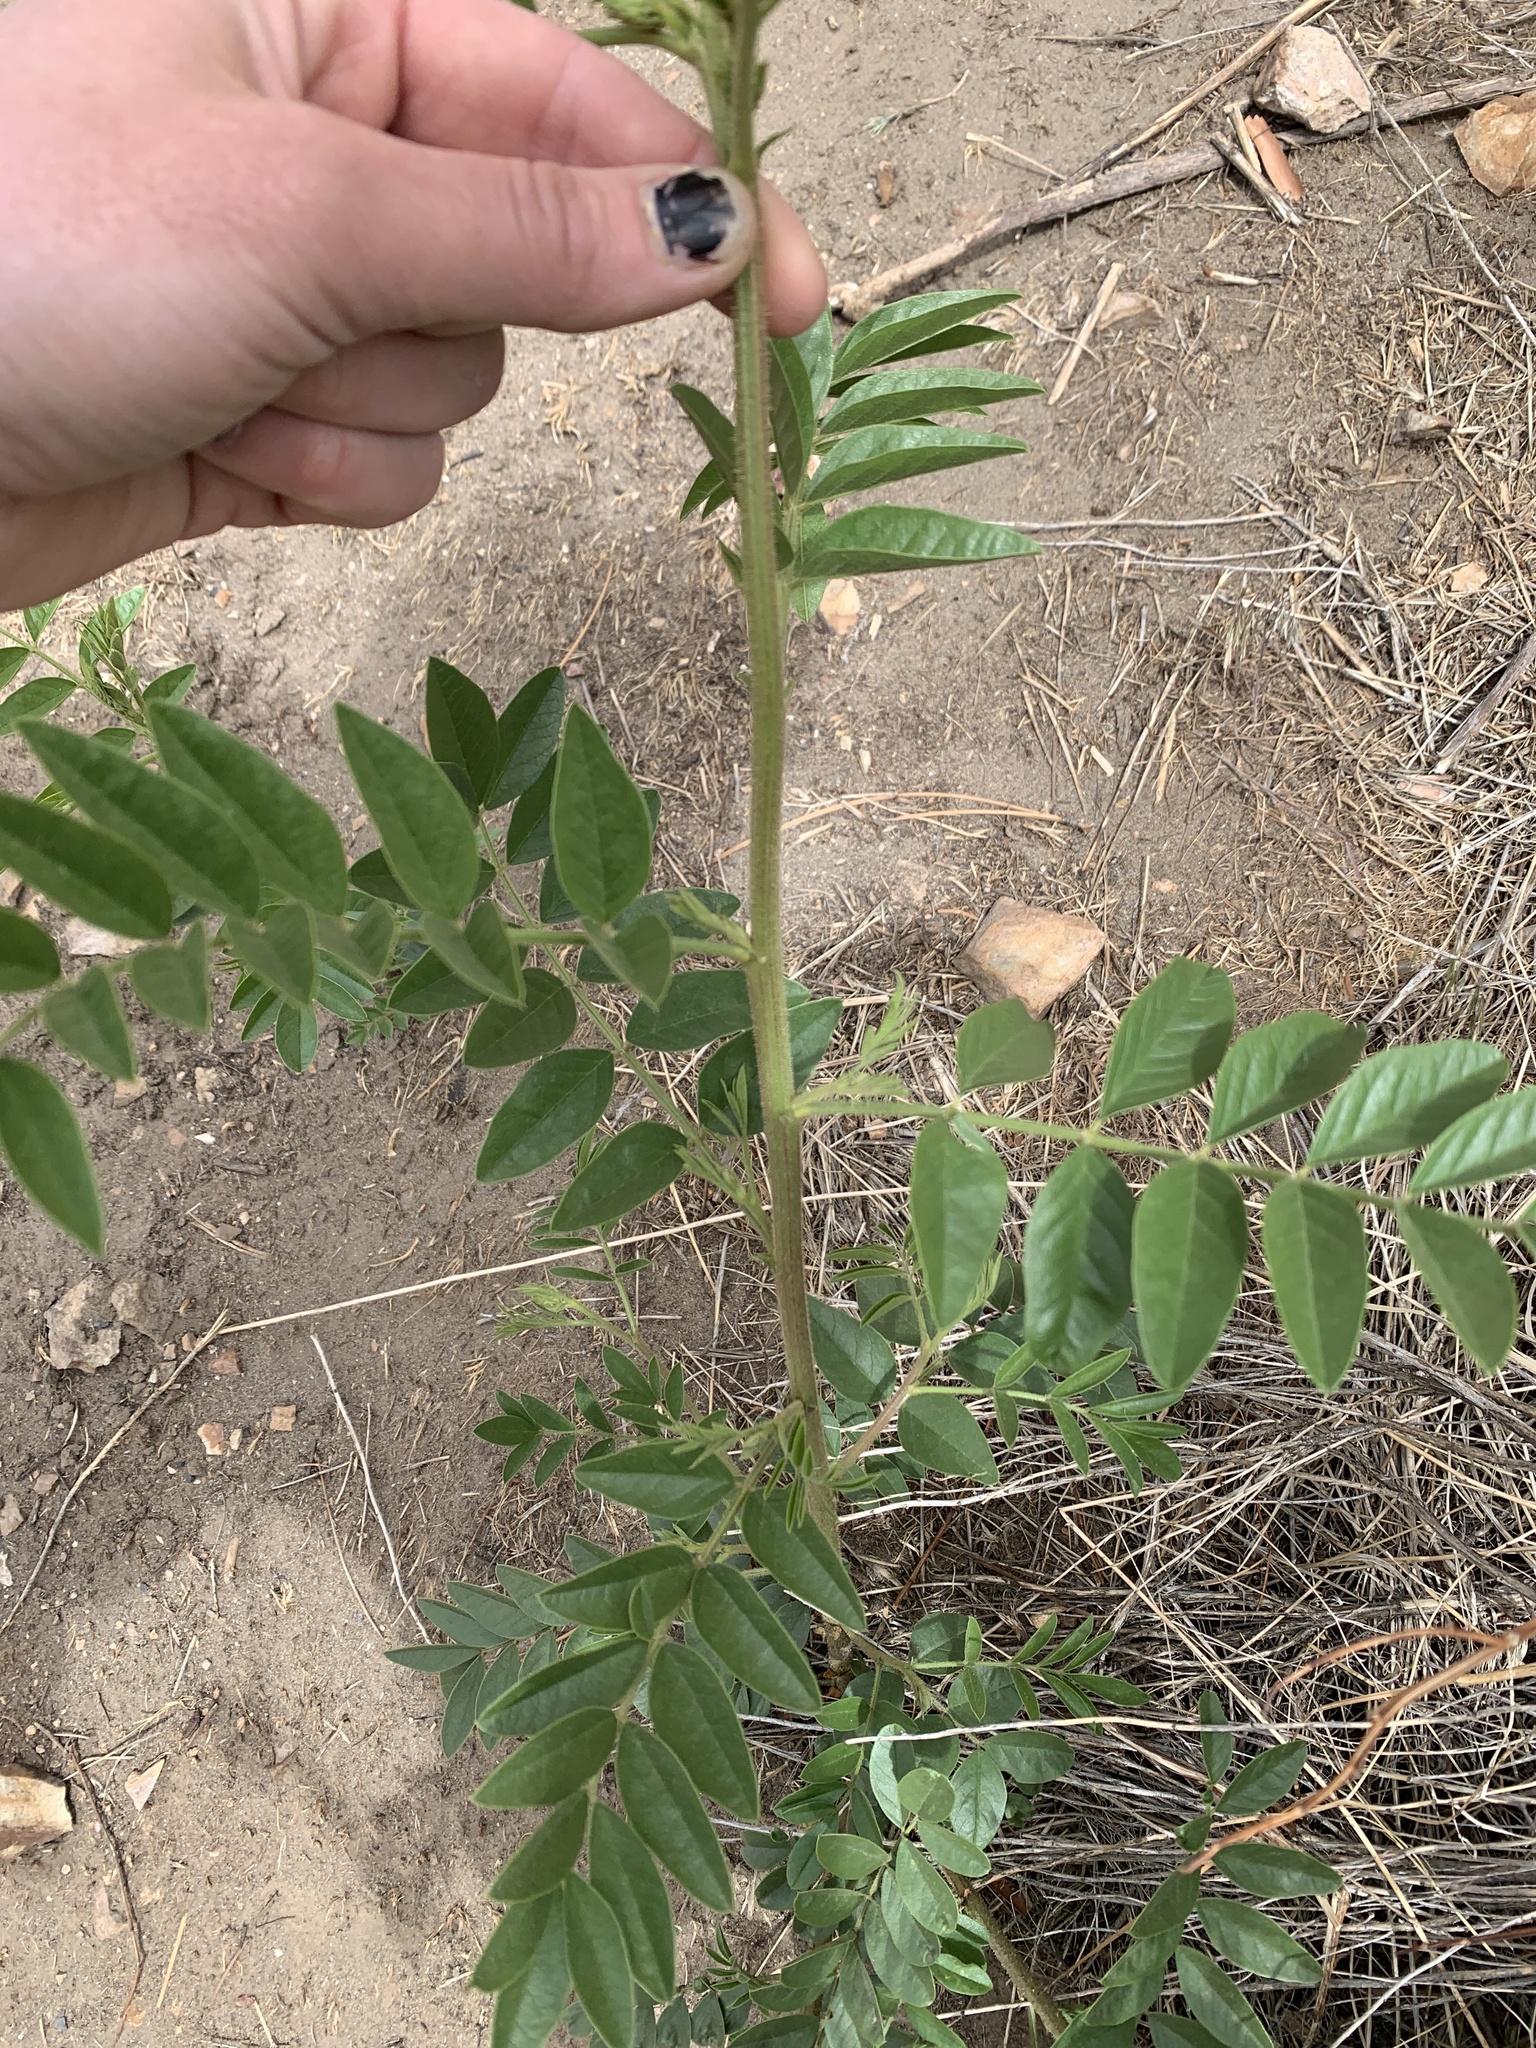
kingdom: Plantae
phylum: Tracheophyta
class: Magnoliopsida
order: Fabales
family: Fabaceae
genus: Glycyrrhiza
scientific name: Glycyrrhiza lepidota
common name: American liquorice
